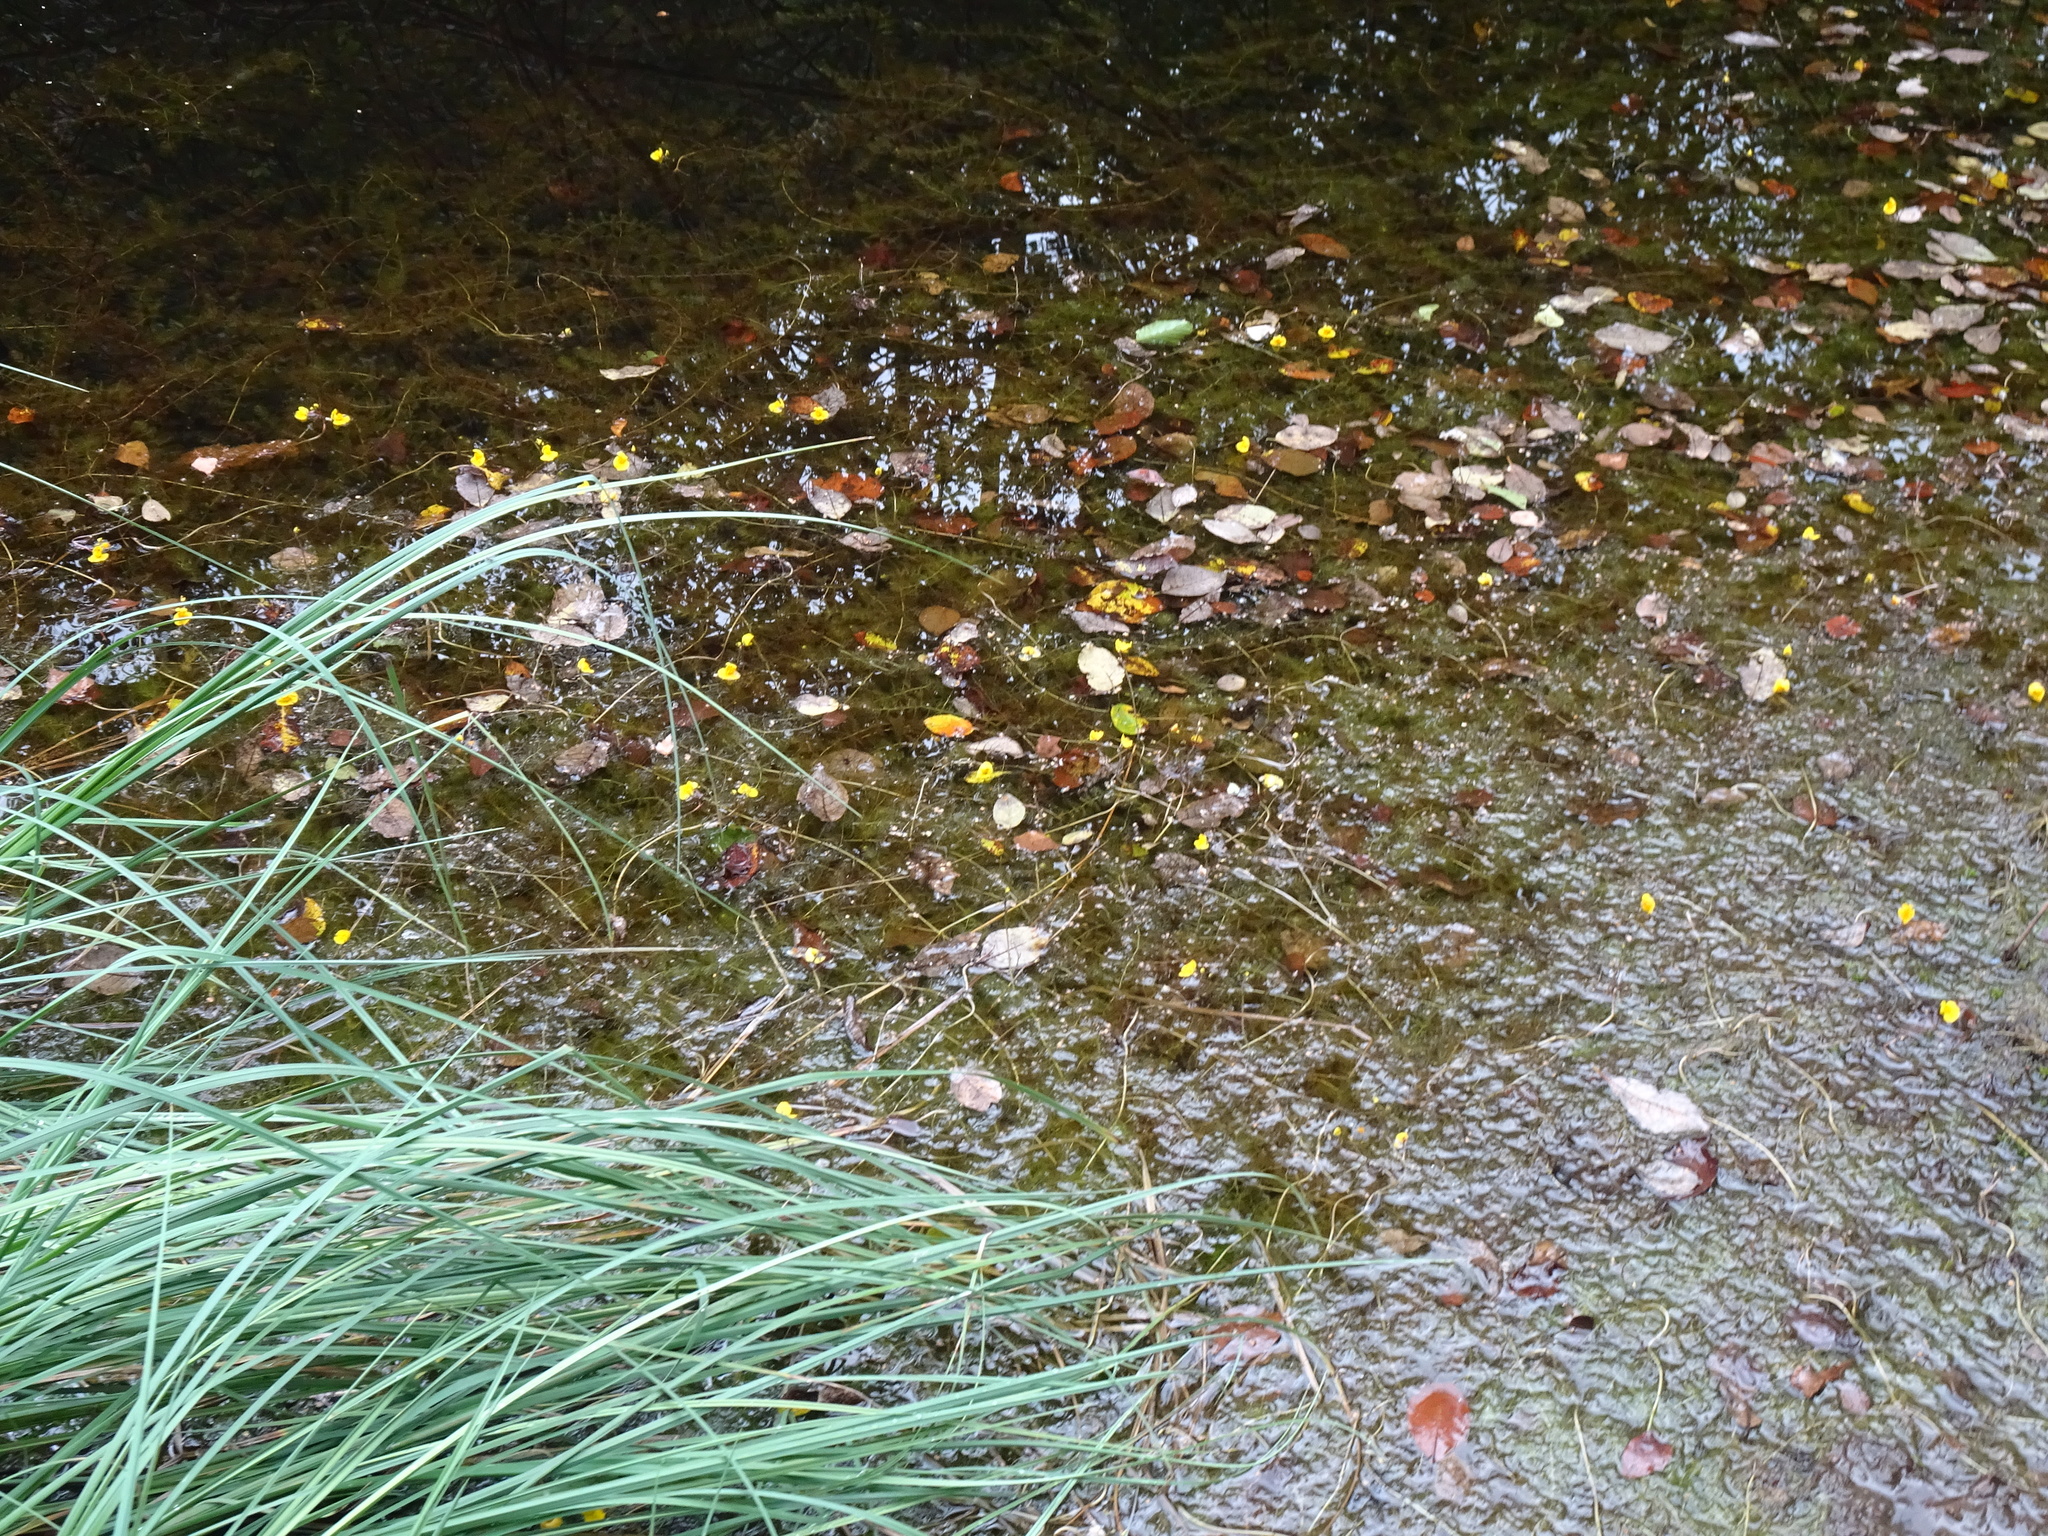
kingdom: Plantae
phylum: Tracheophyta
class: Magnoliopsida
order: Lamiales
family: Lentibulariaceae
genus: Utricularia
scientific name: Utricularia australis
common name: Bladderwort
